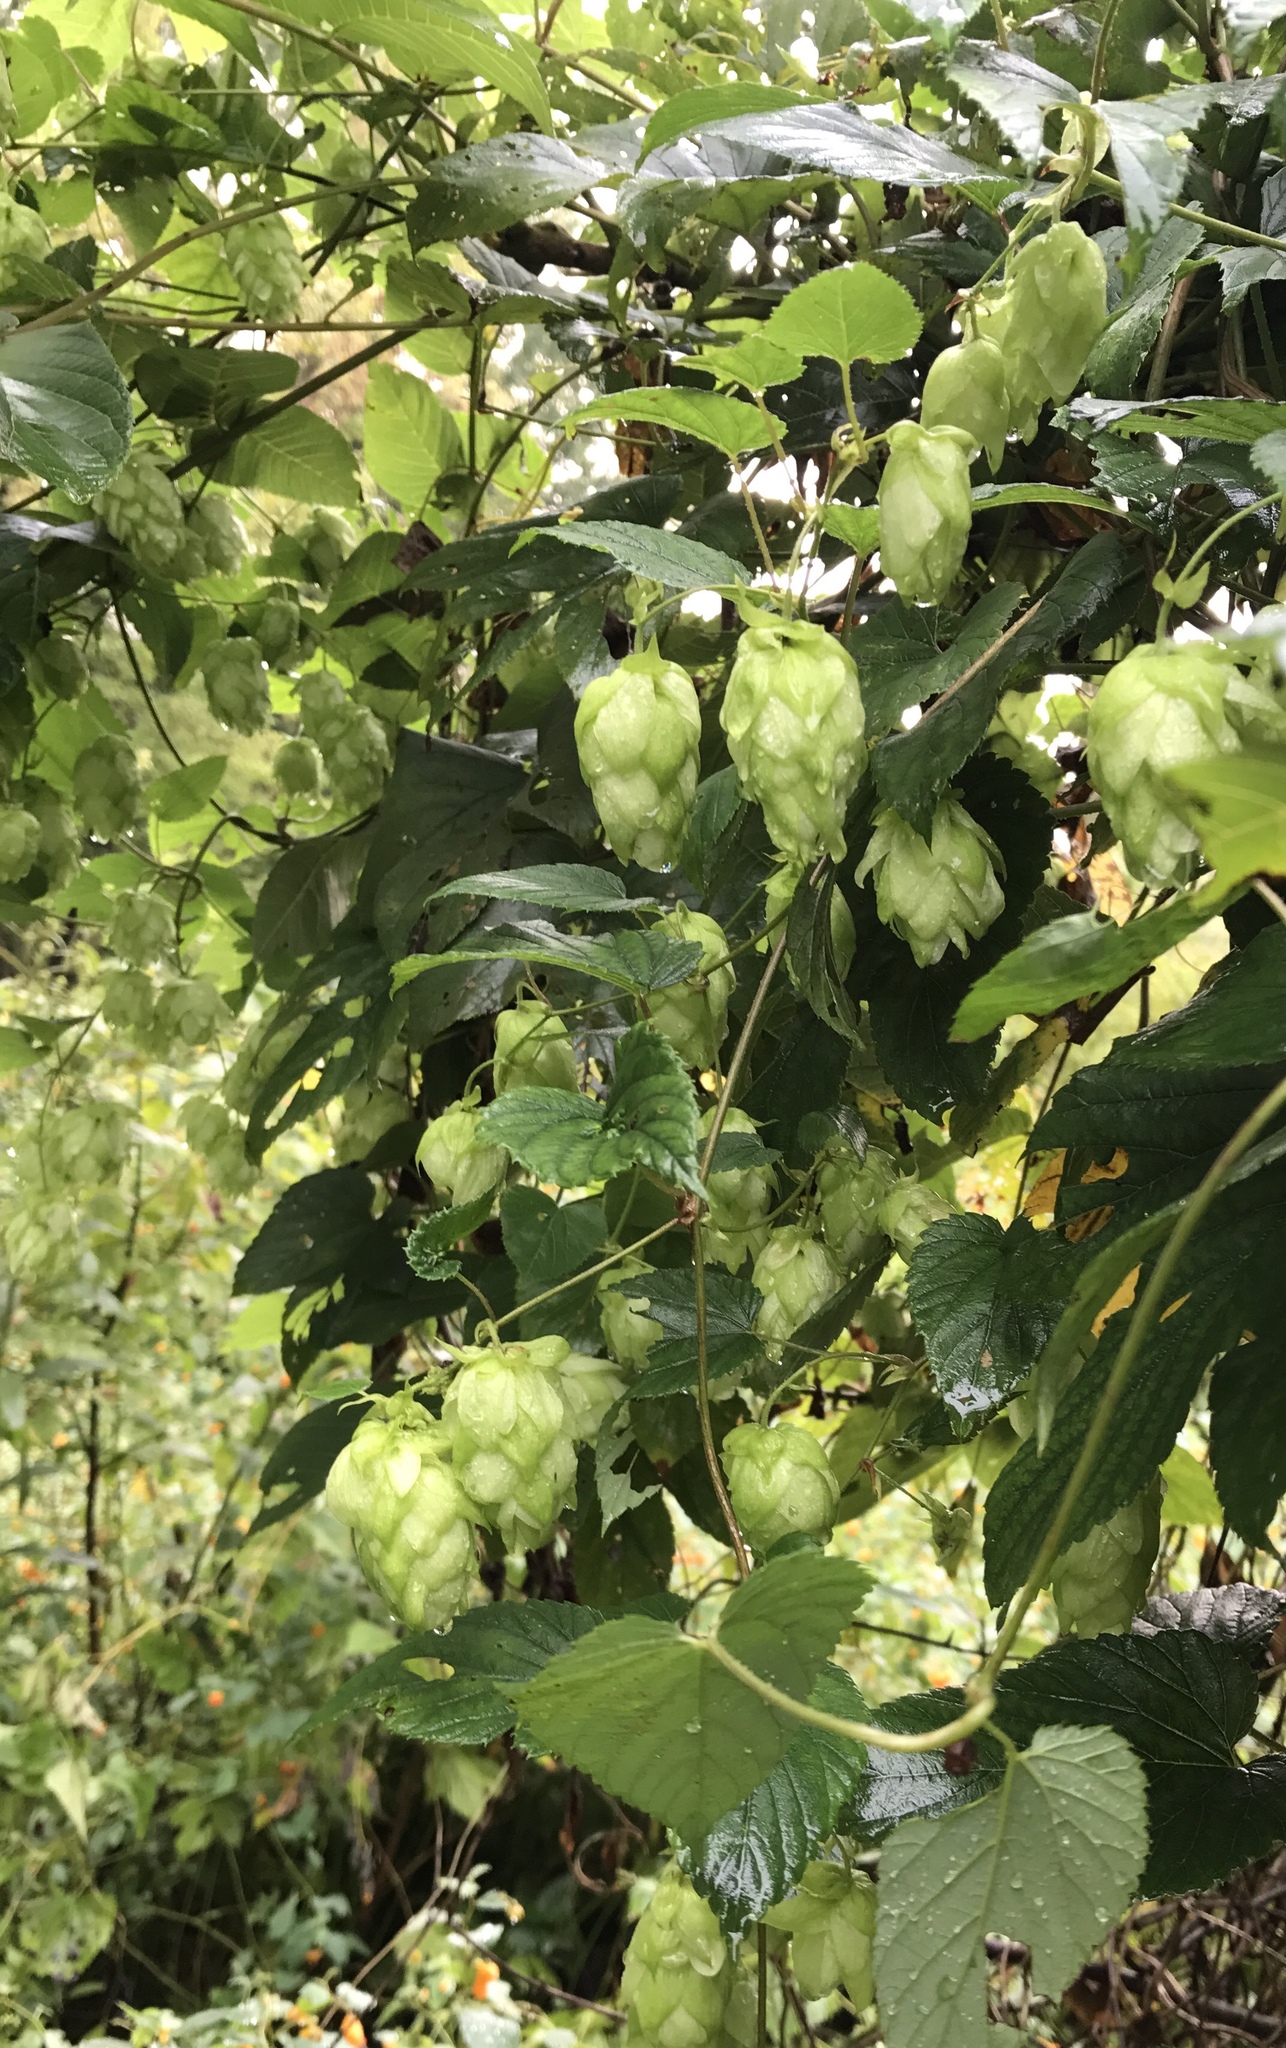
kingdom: Plantae
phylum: Tracheophyta
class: Magnoliopsida
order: Rosales
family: Cannabaceae
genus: Humulus
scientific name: Humulus lupulus
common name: Hop
